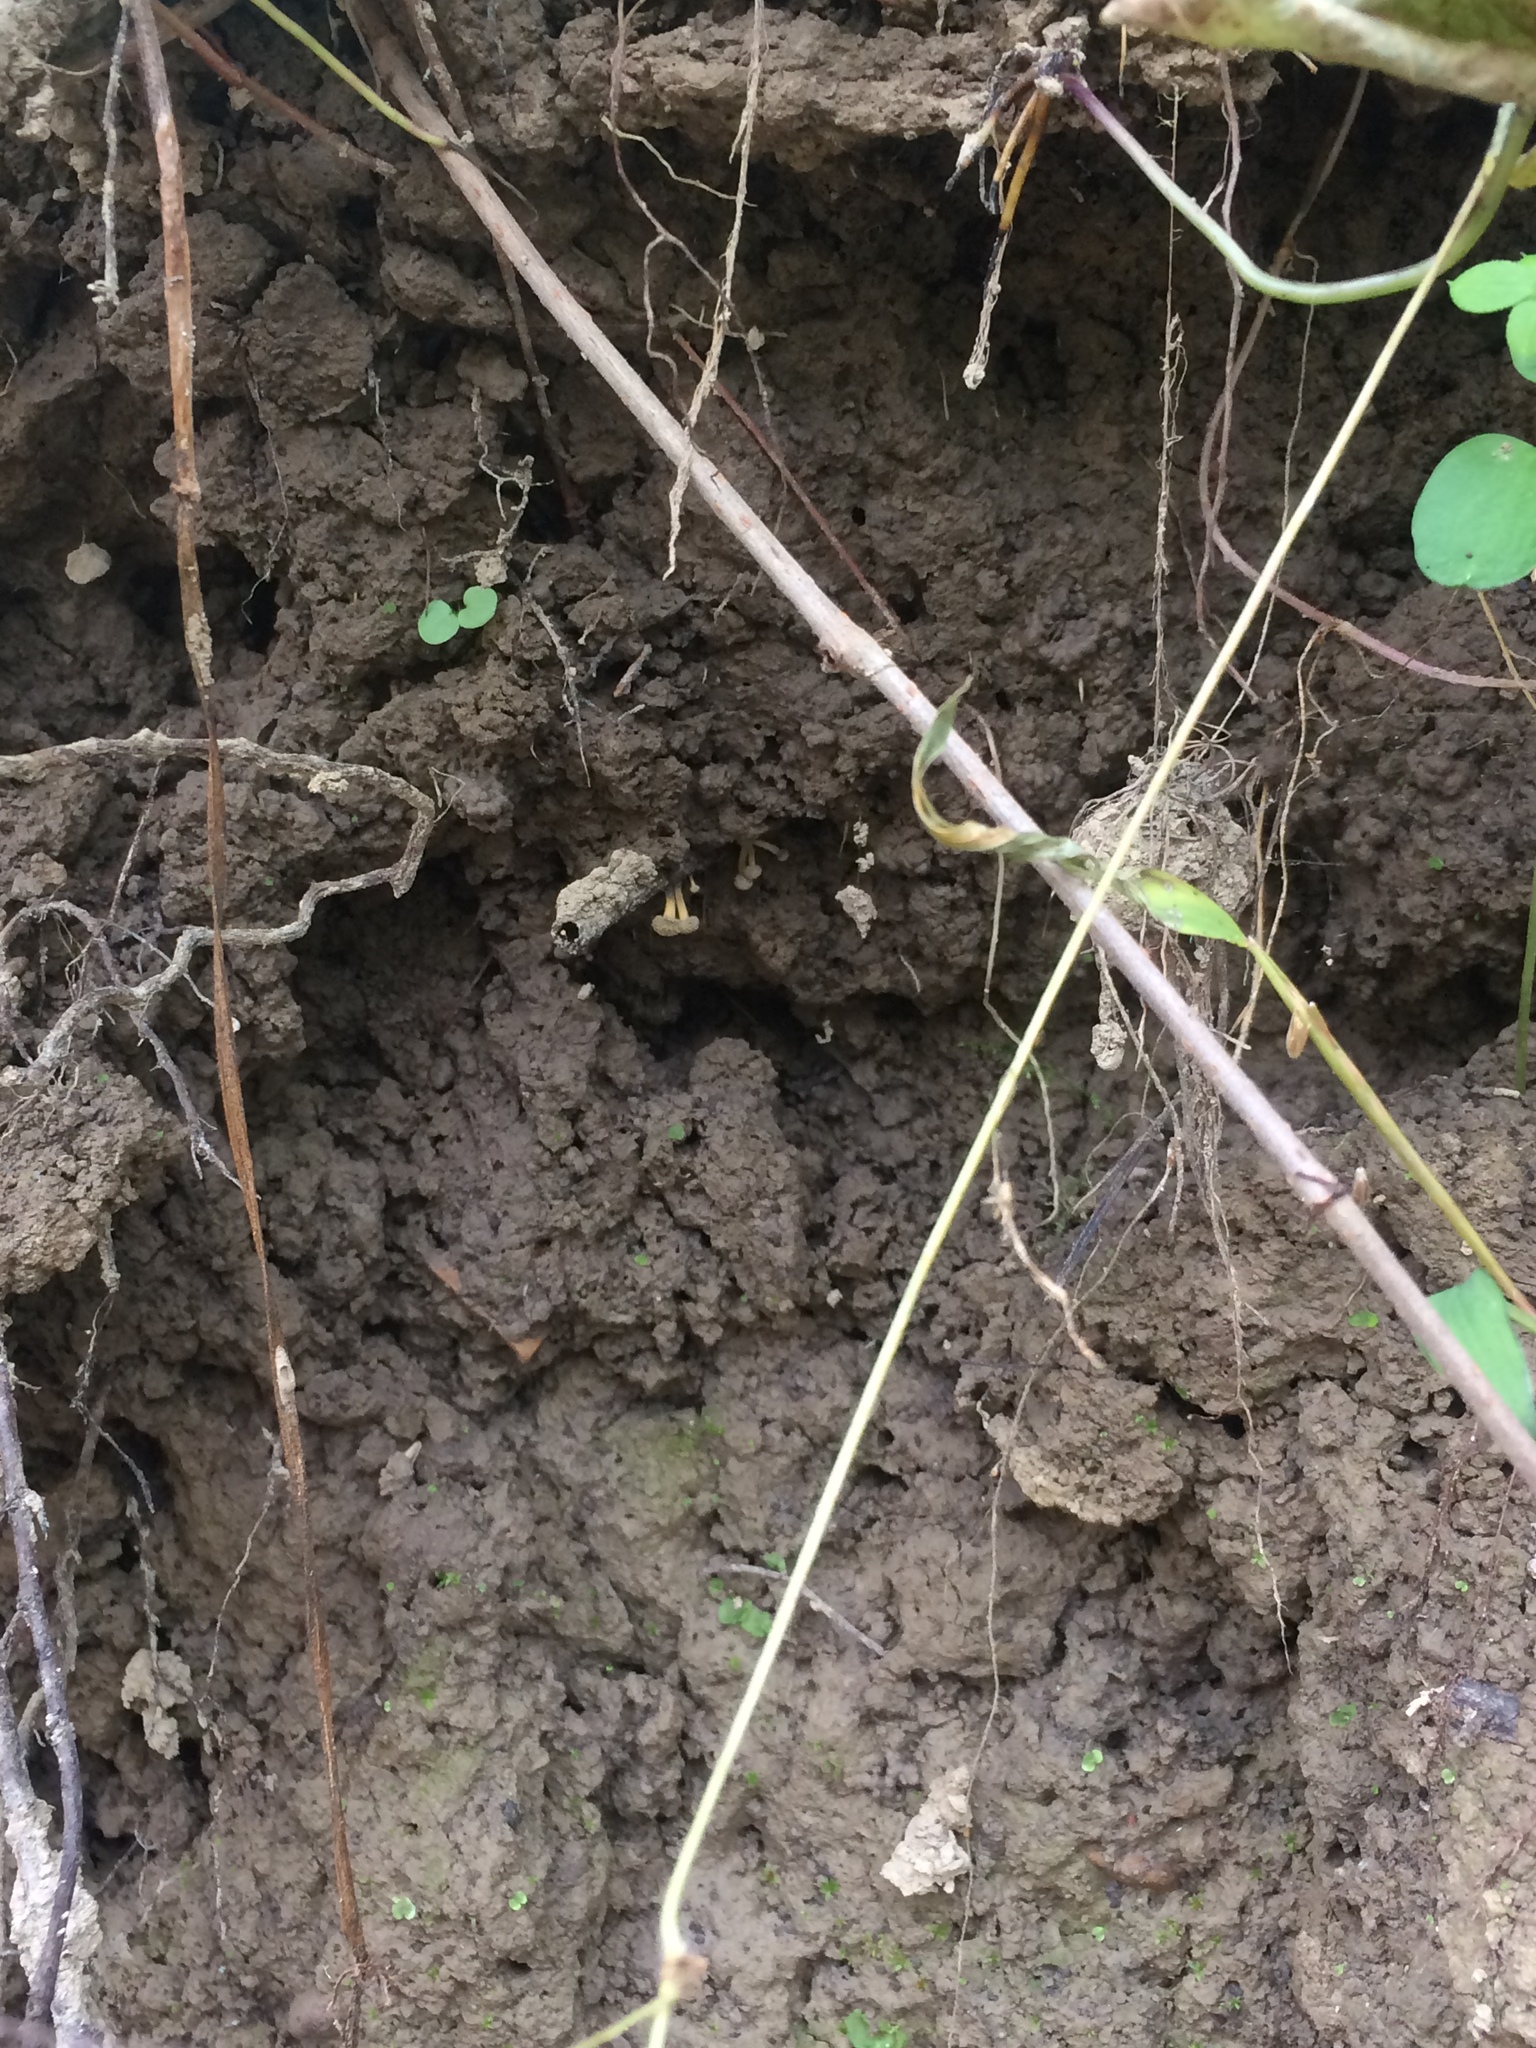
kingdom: Fungi
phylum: Ascomycota
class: Leotiomycetes
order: Helotiales
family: Helotiaceae
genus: Roesleria
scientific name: Roesleria subterranea
